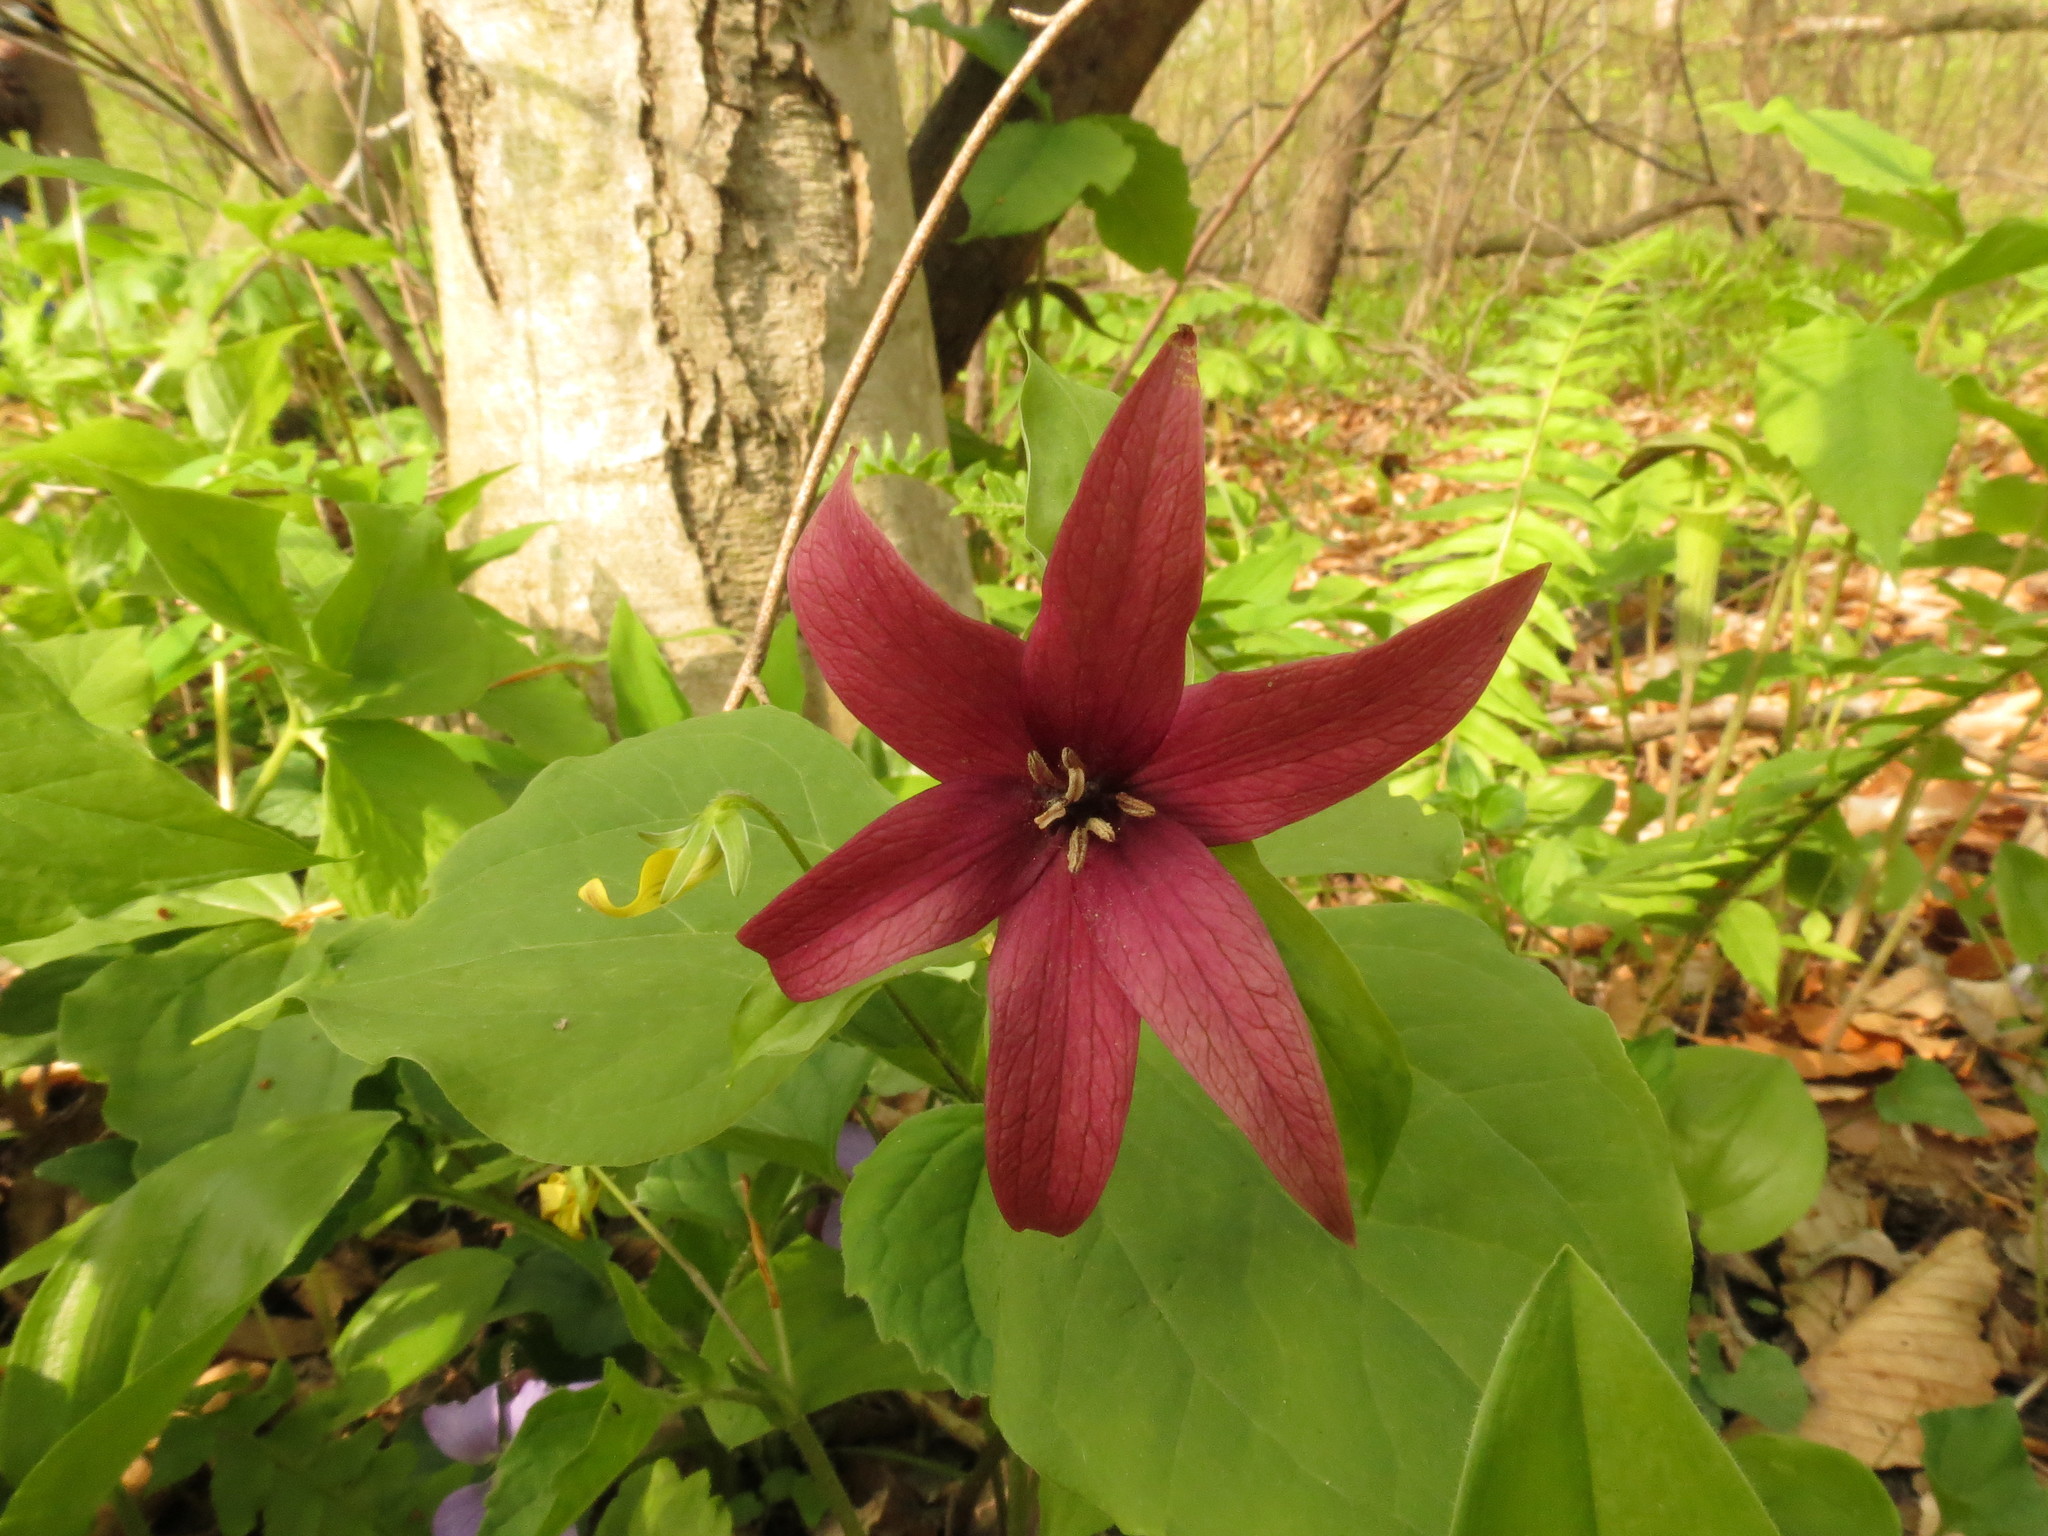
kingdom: Plantae
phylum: Tracheophyta
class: Liliopsida
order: Liliales
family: Melanthiaceae
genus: Trillium
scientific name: Trillium erectum
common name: Purple trillium
